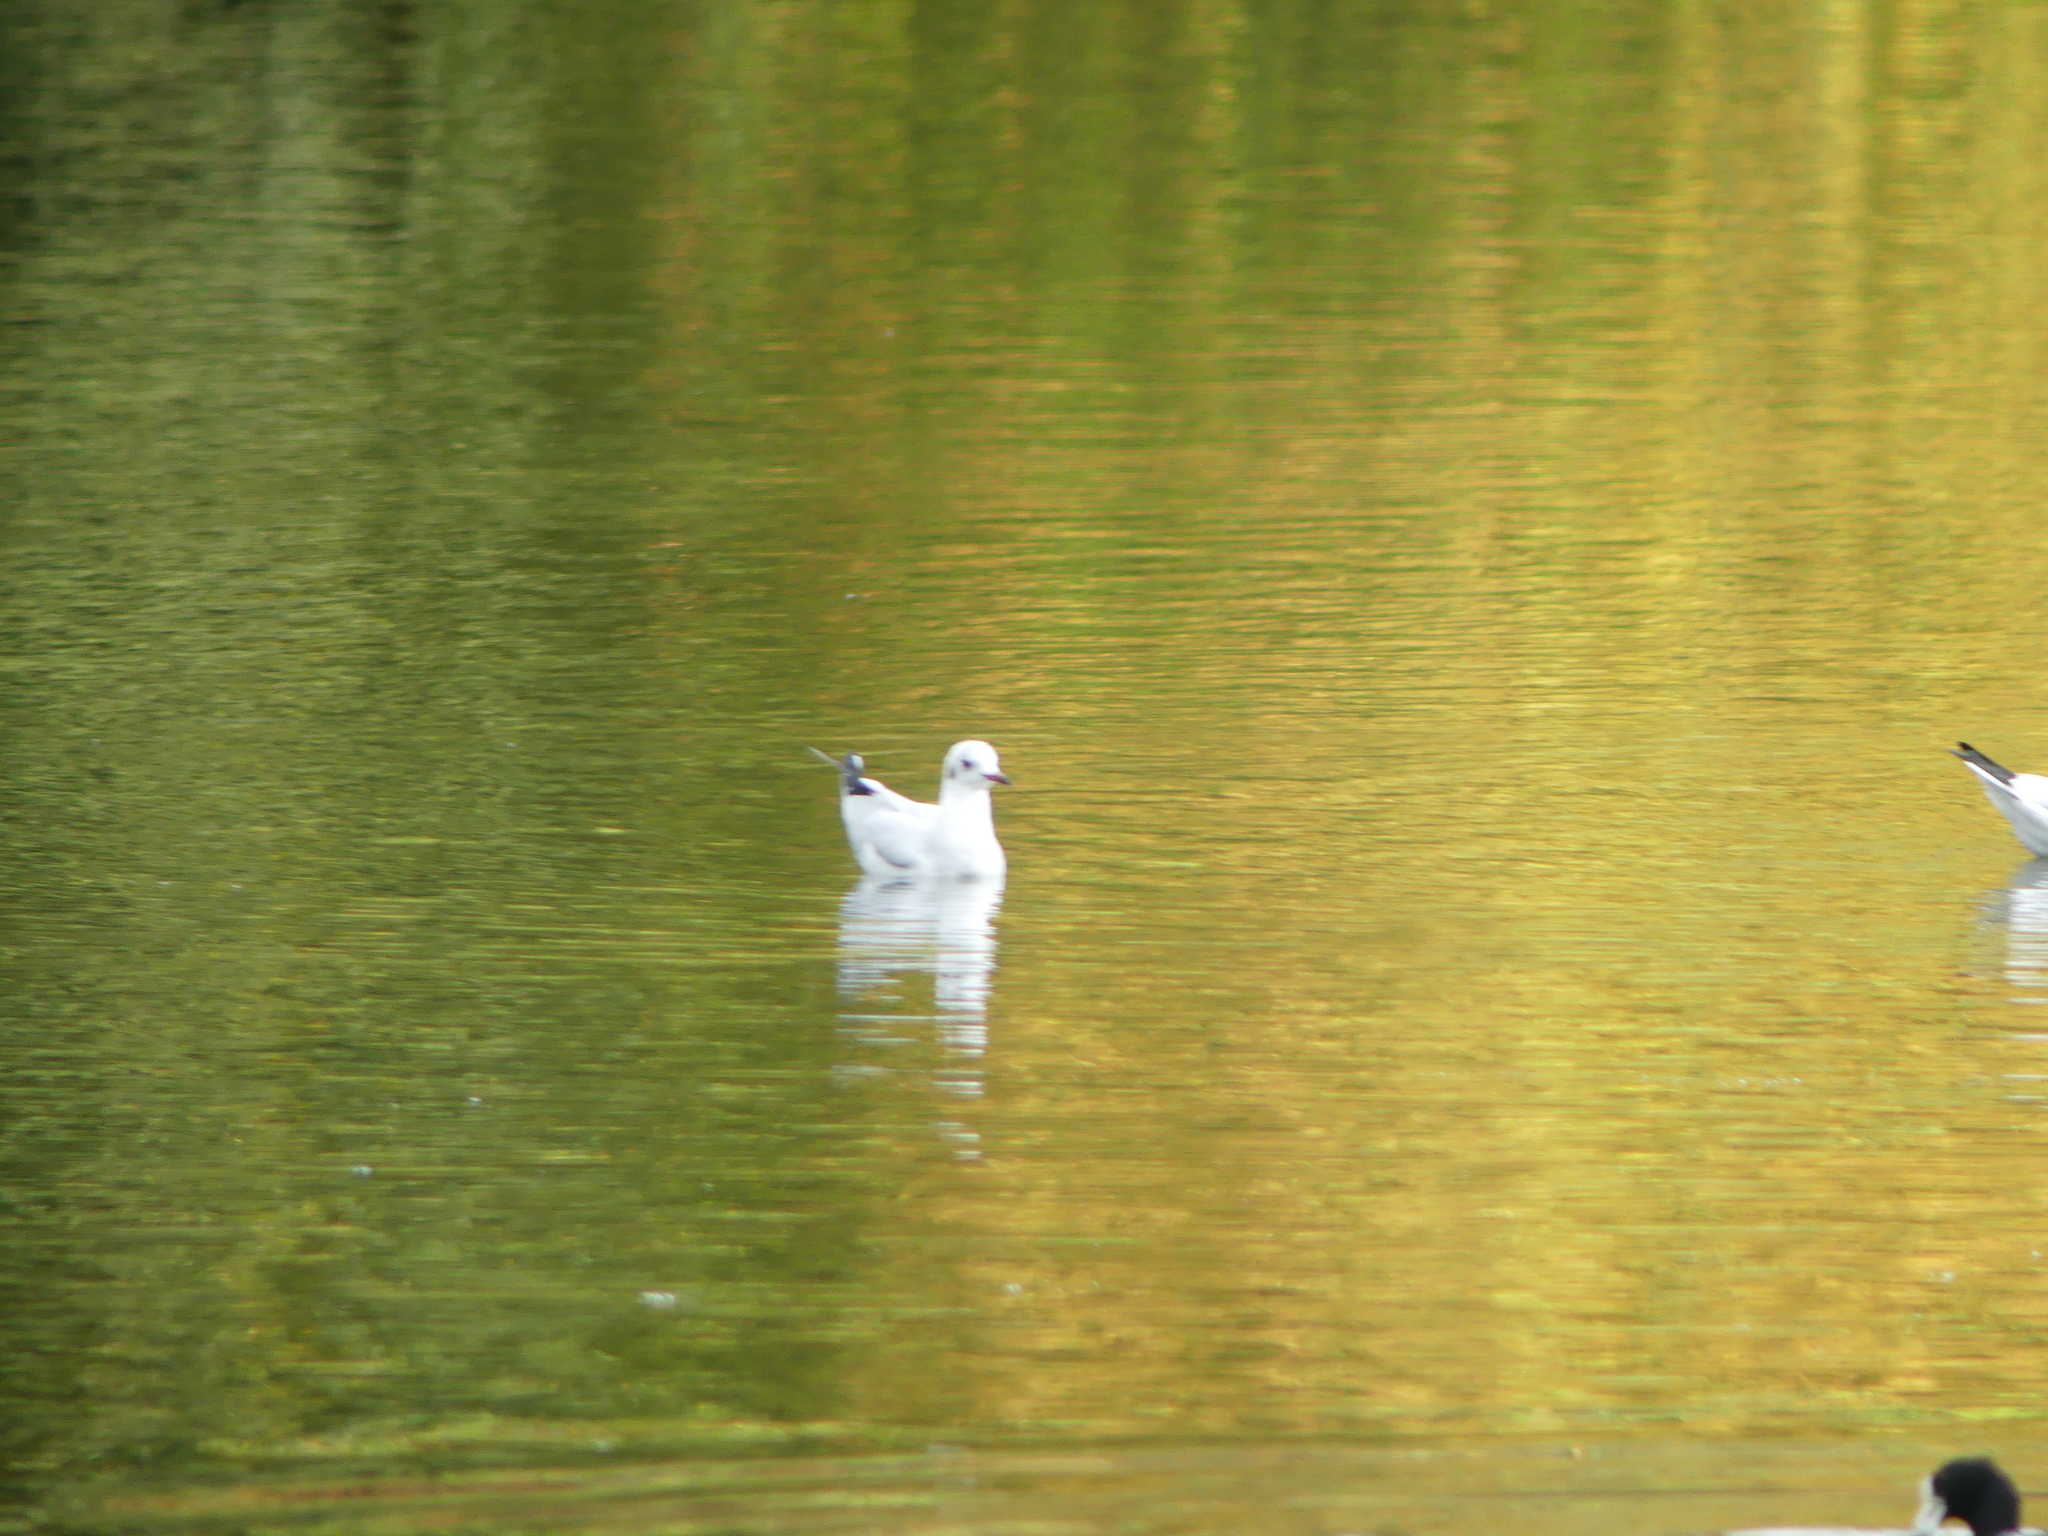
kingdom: Animalia
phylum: Chordata
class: Aves
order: Charadriiformes
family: Laridae
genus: Chroicocephalus
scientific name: Chroicocephalus ridibundus
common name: Black-headed gull
